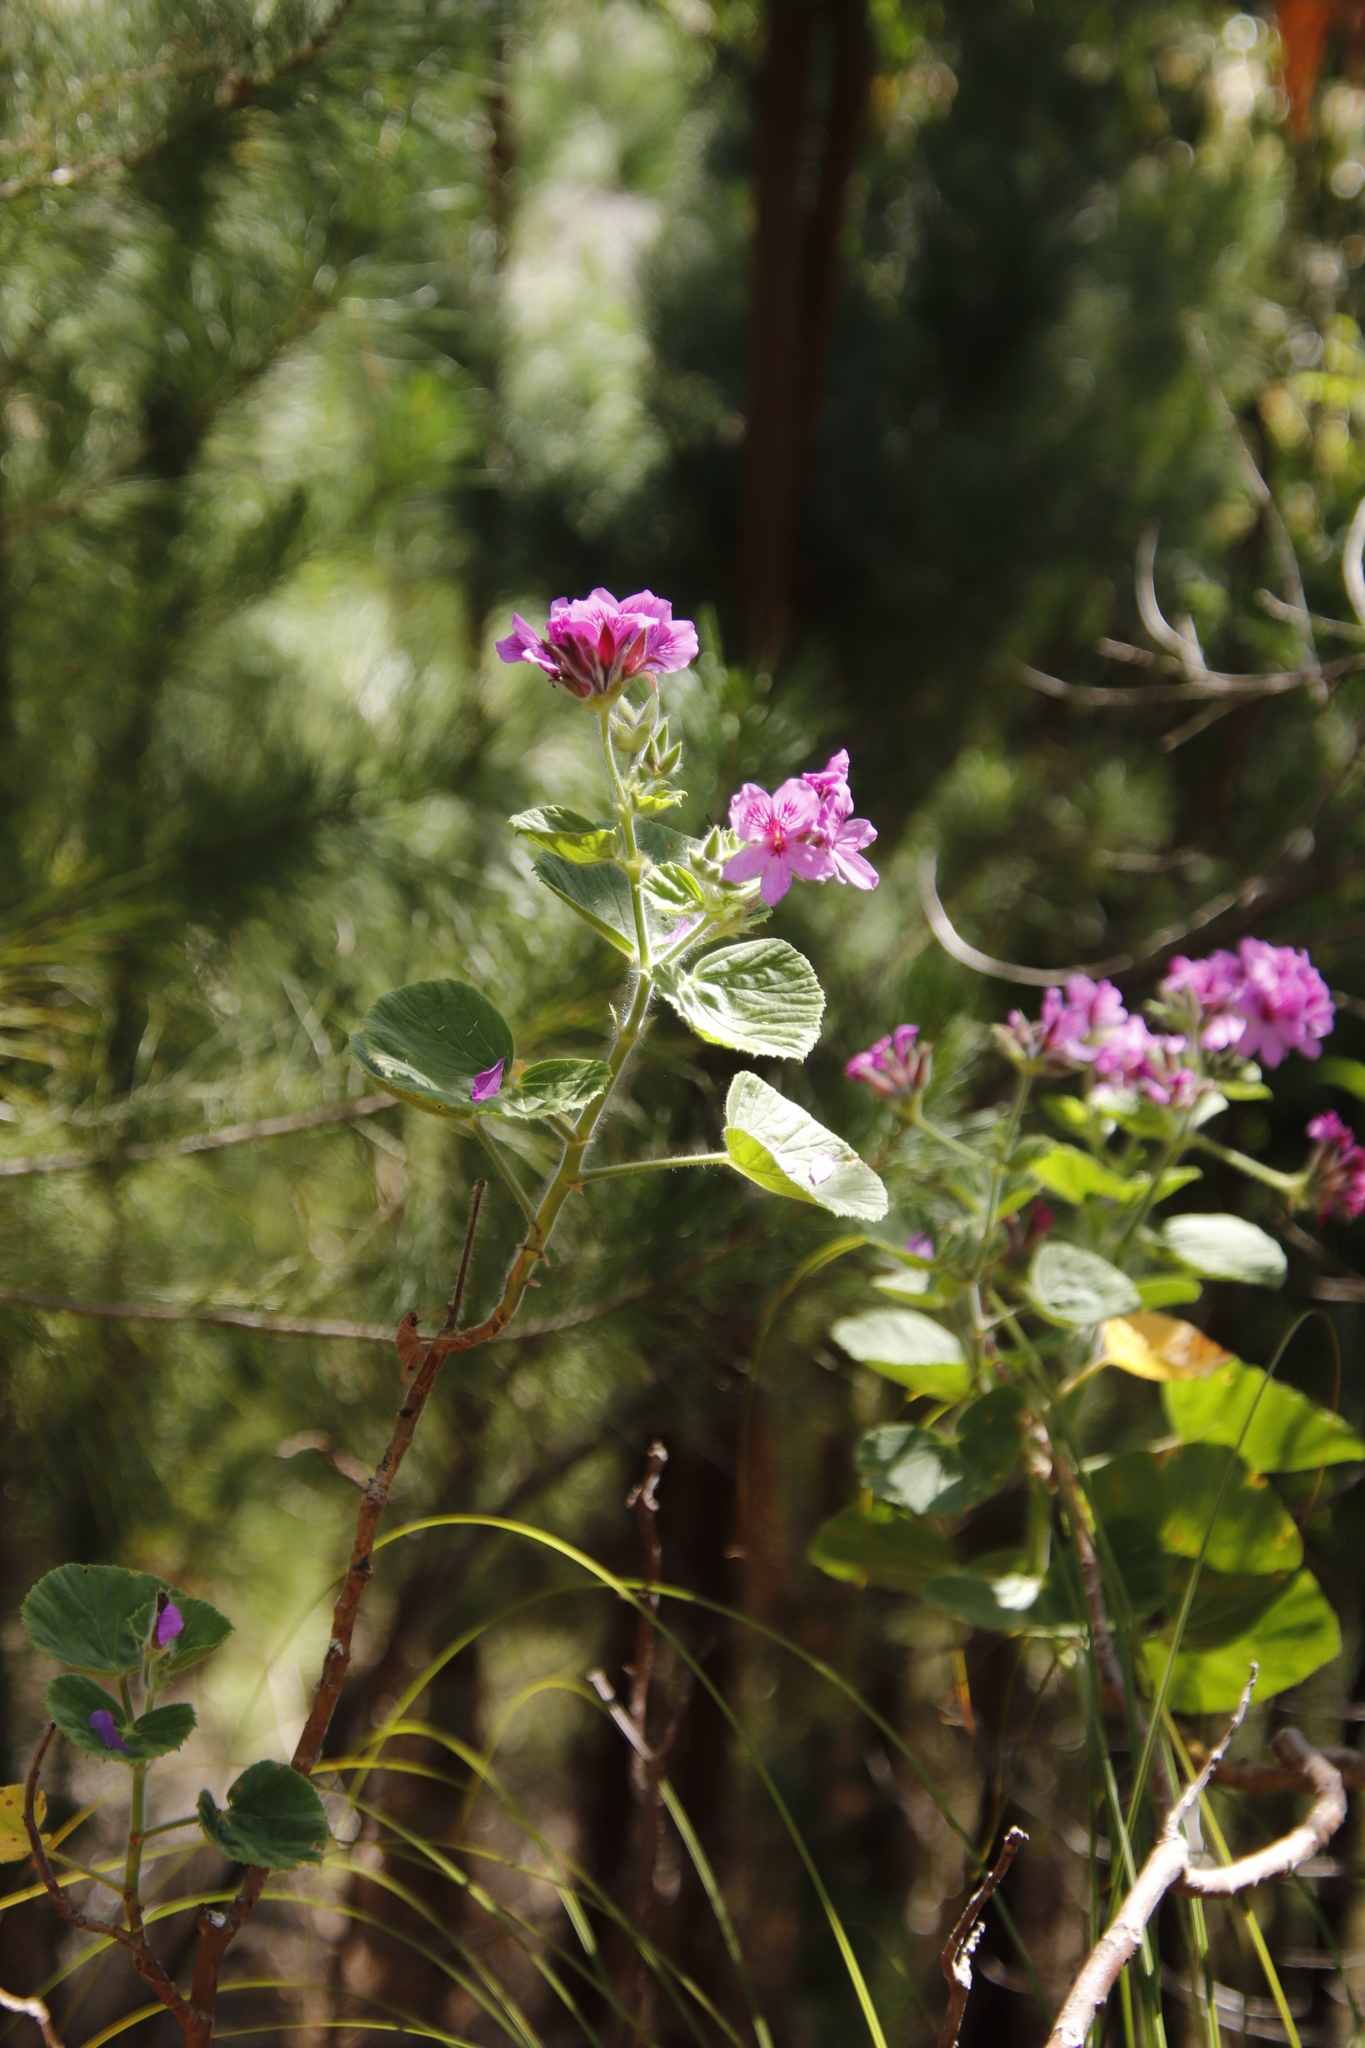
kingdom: Plantae
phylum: Tracheophyta
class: Magnoliopsida
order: Geraniales
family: Geraniaceae
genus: Pelargonium
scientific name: Pelargonium cucullatum
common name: Tree pelargonium
